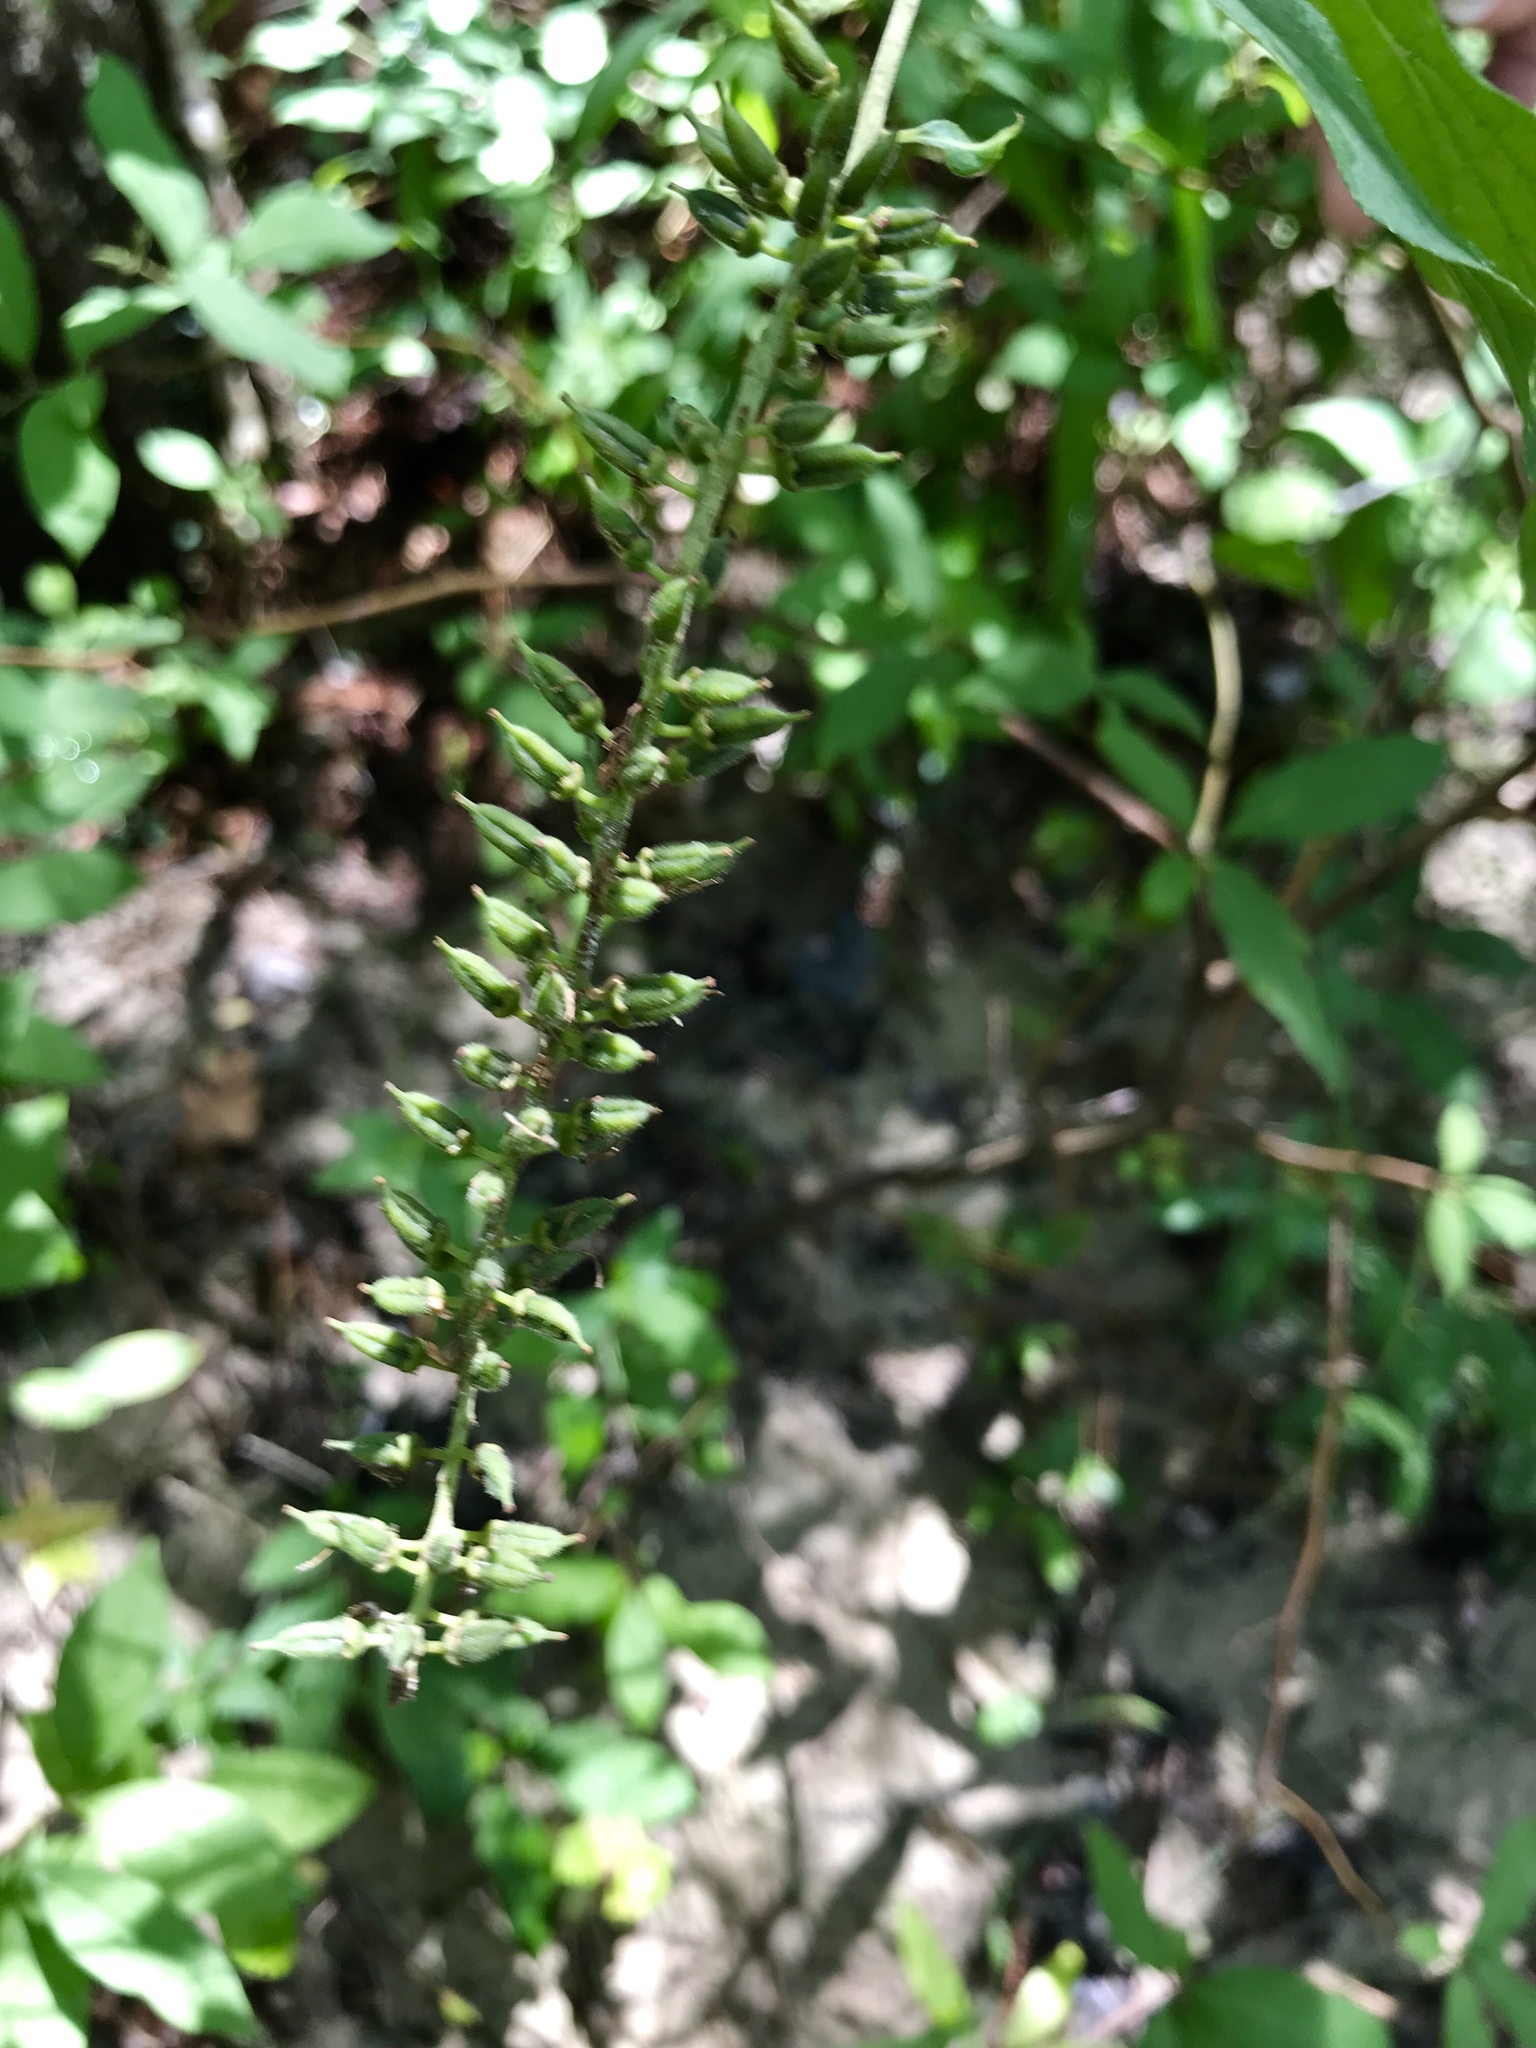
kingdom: Plantae
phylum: Tracheophyta
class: Magnoliopsida
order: Saxifragales
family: Iteaceae
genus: Itea
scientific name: Itea virginica
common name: Sweetspire
